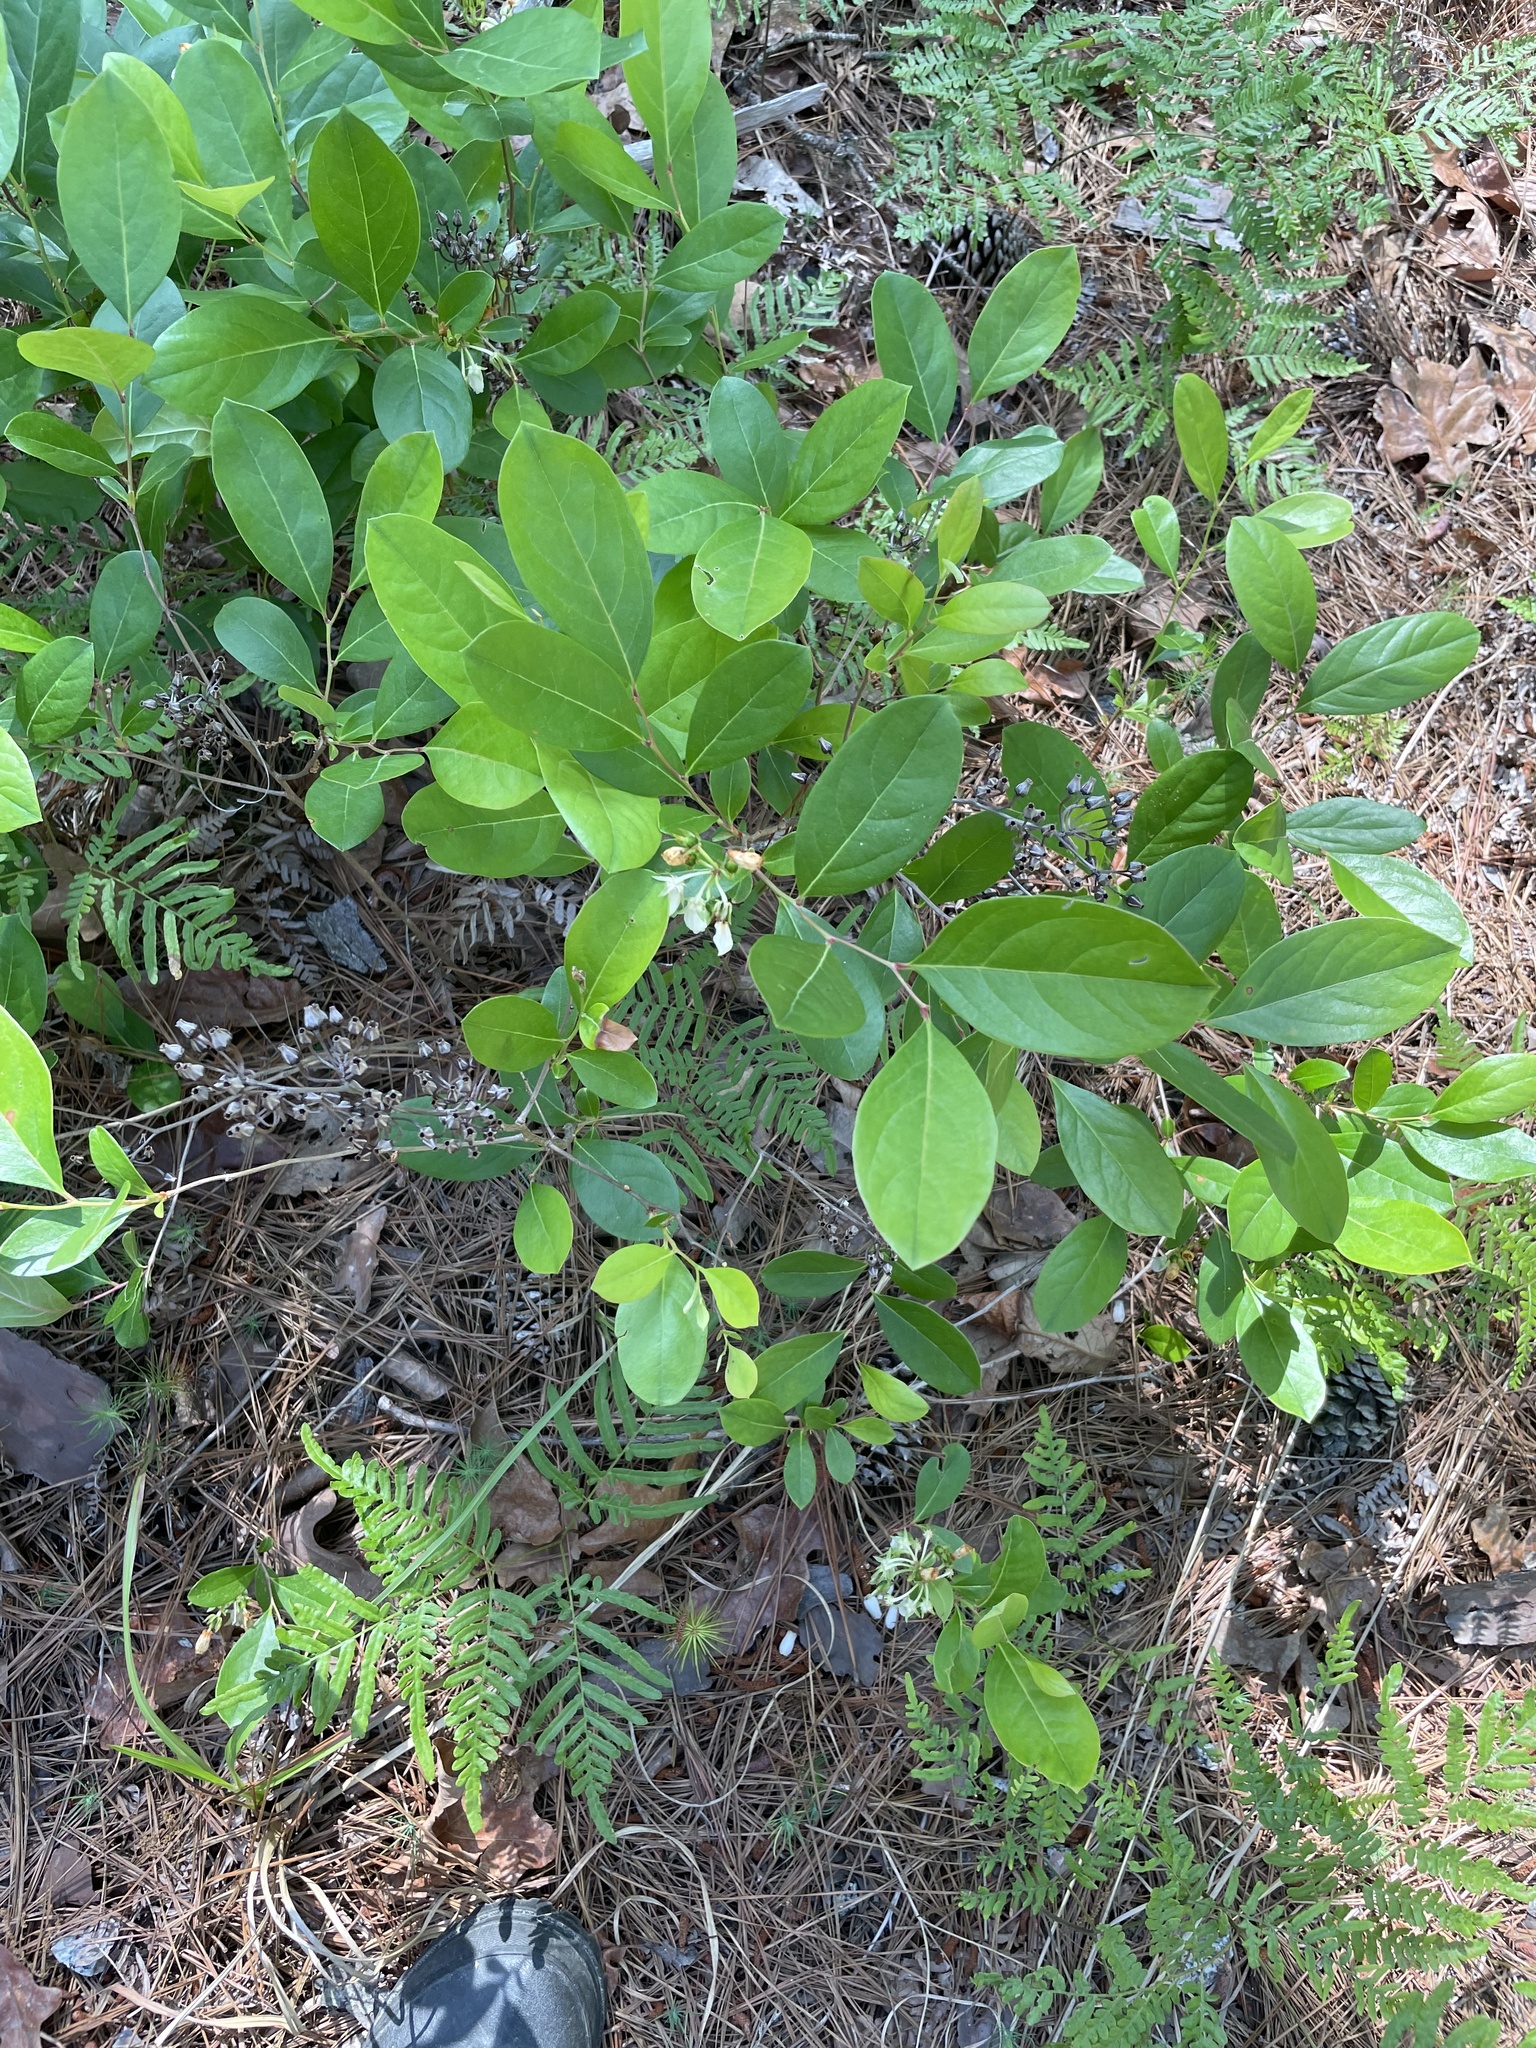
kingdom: Plantae
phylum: Tracheophyta
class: Magnoliopsida
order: Ericales
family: Ericaceae
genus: Lyonia
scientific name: Lyonia mariana
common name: Staggerbush
